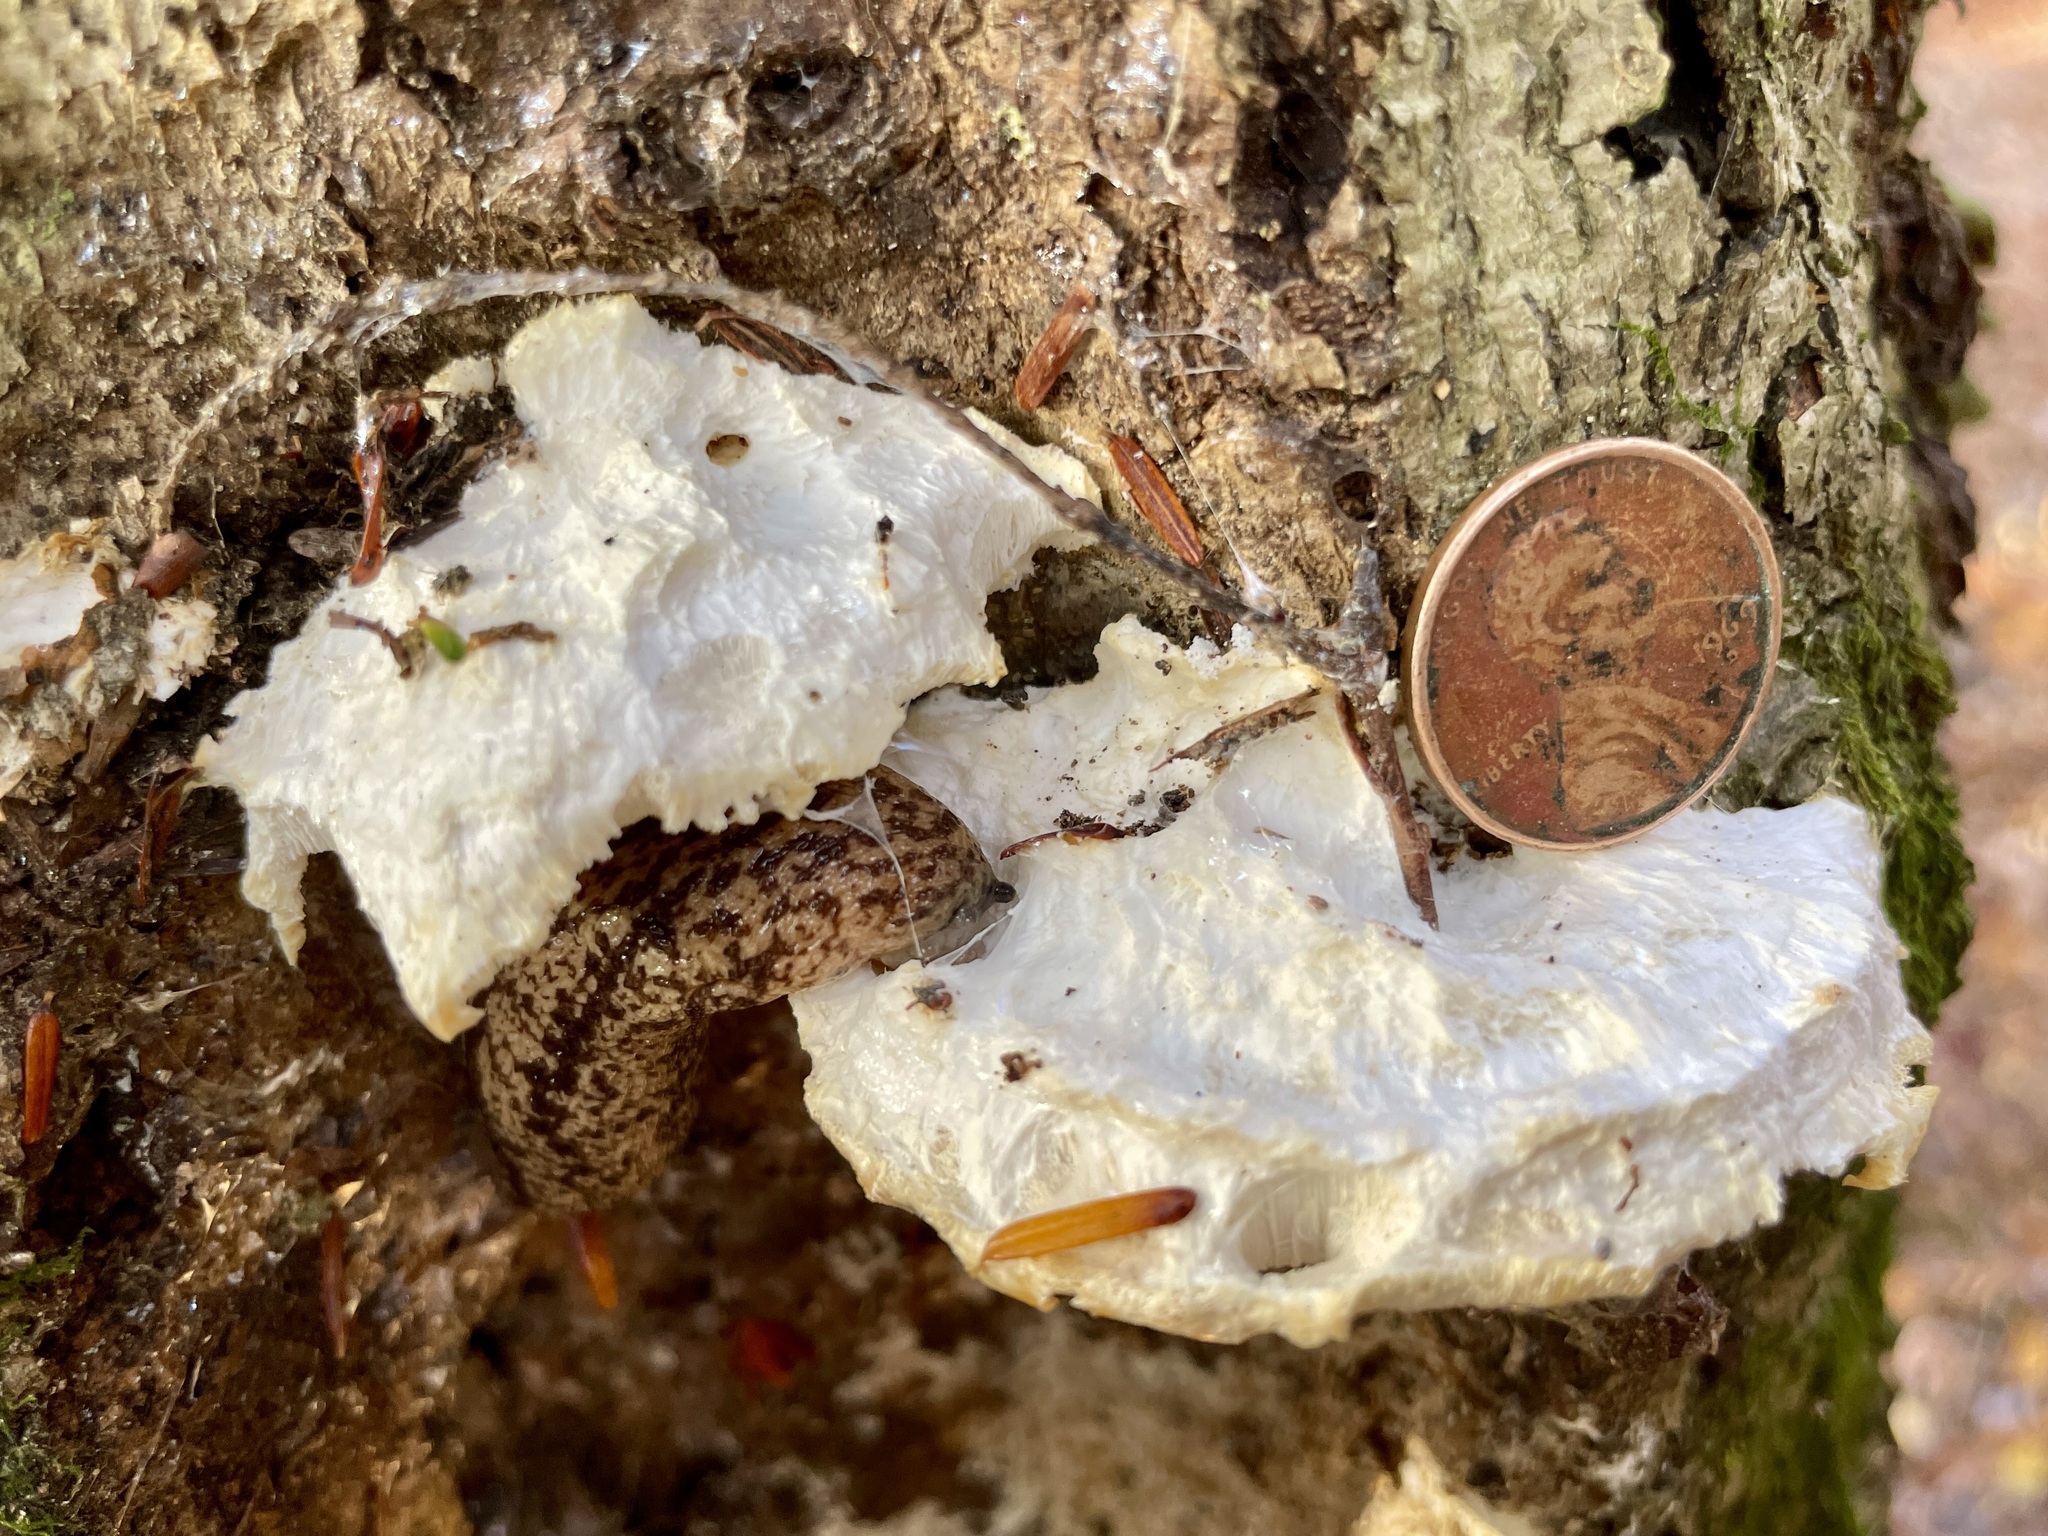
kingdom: Animalia
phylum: Mollusca
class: Gastropoda
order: Stylommatophora
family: Philomycidae
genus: Philomycus
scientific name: Philomycus flexuolaris
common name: Winding mantleslug
